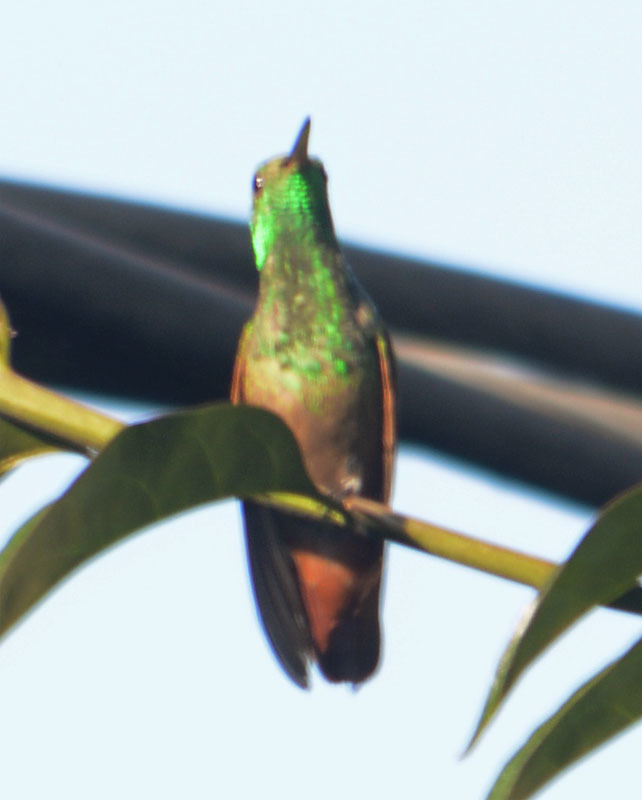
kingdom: Animalia
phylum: Chordata
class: Aves
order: Apodiformes
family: Trochilidae
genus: Saucerottia
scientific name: Saucerottia beryllina
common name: Berylline hummingbird
